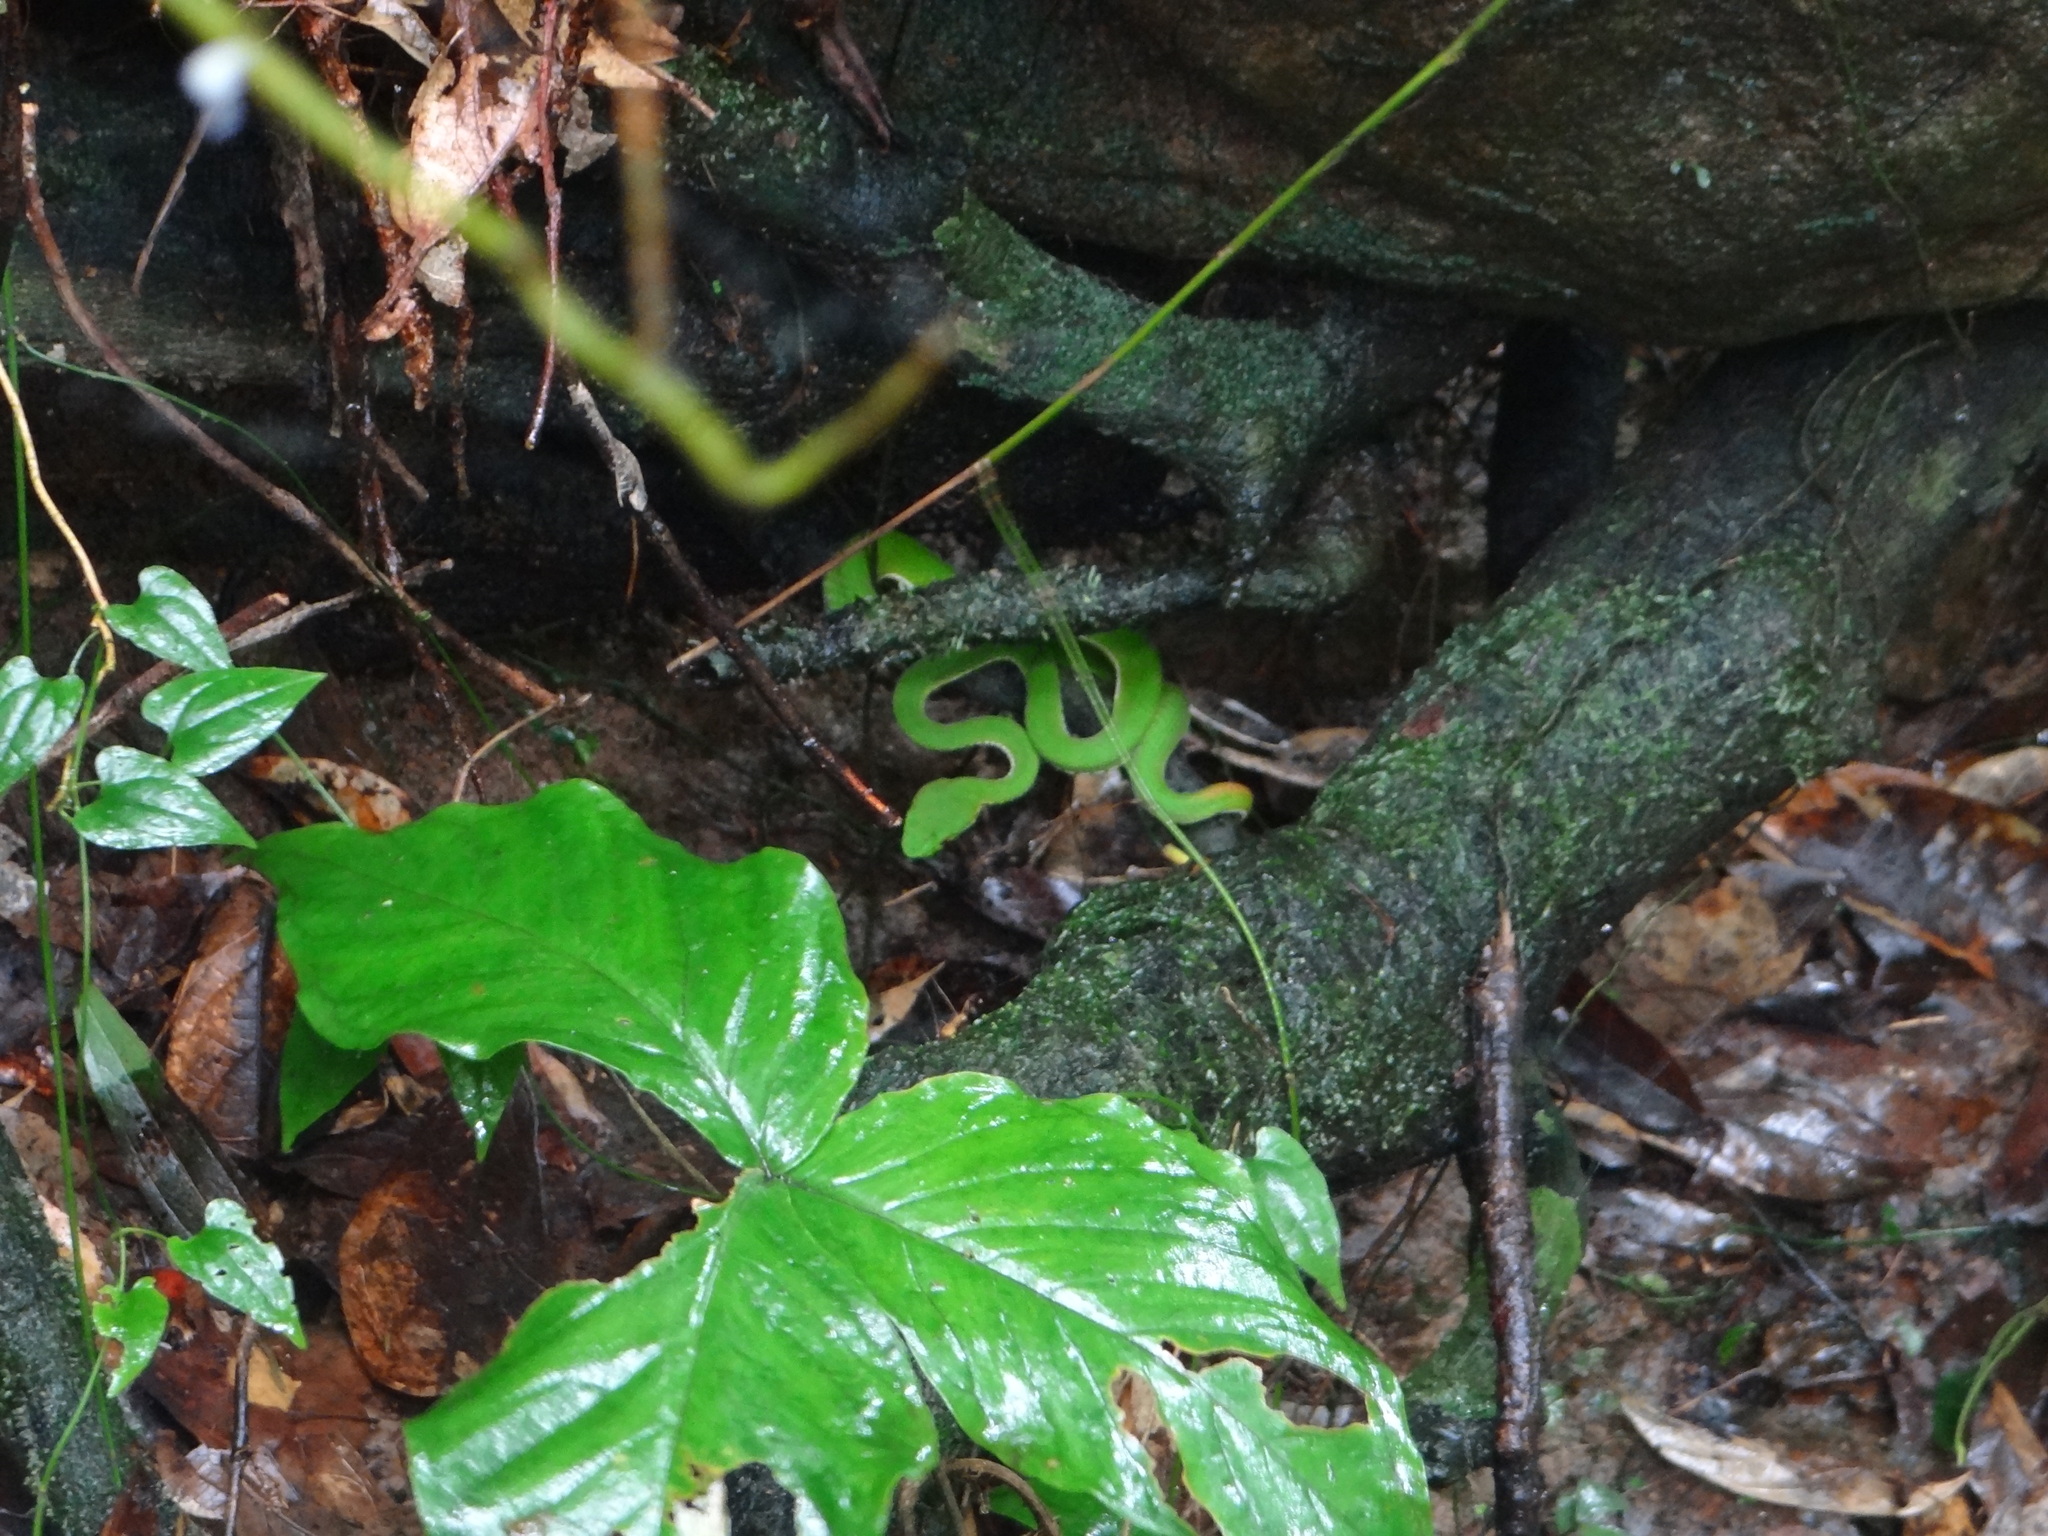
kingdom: Animalia
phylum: Chordata
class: Squamata
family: Viperidae
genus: Trimeresurus
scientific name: Trimeresurus stejnegeri
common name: Chen’s bamboo pit viper
